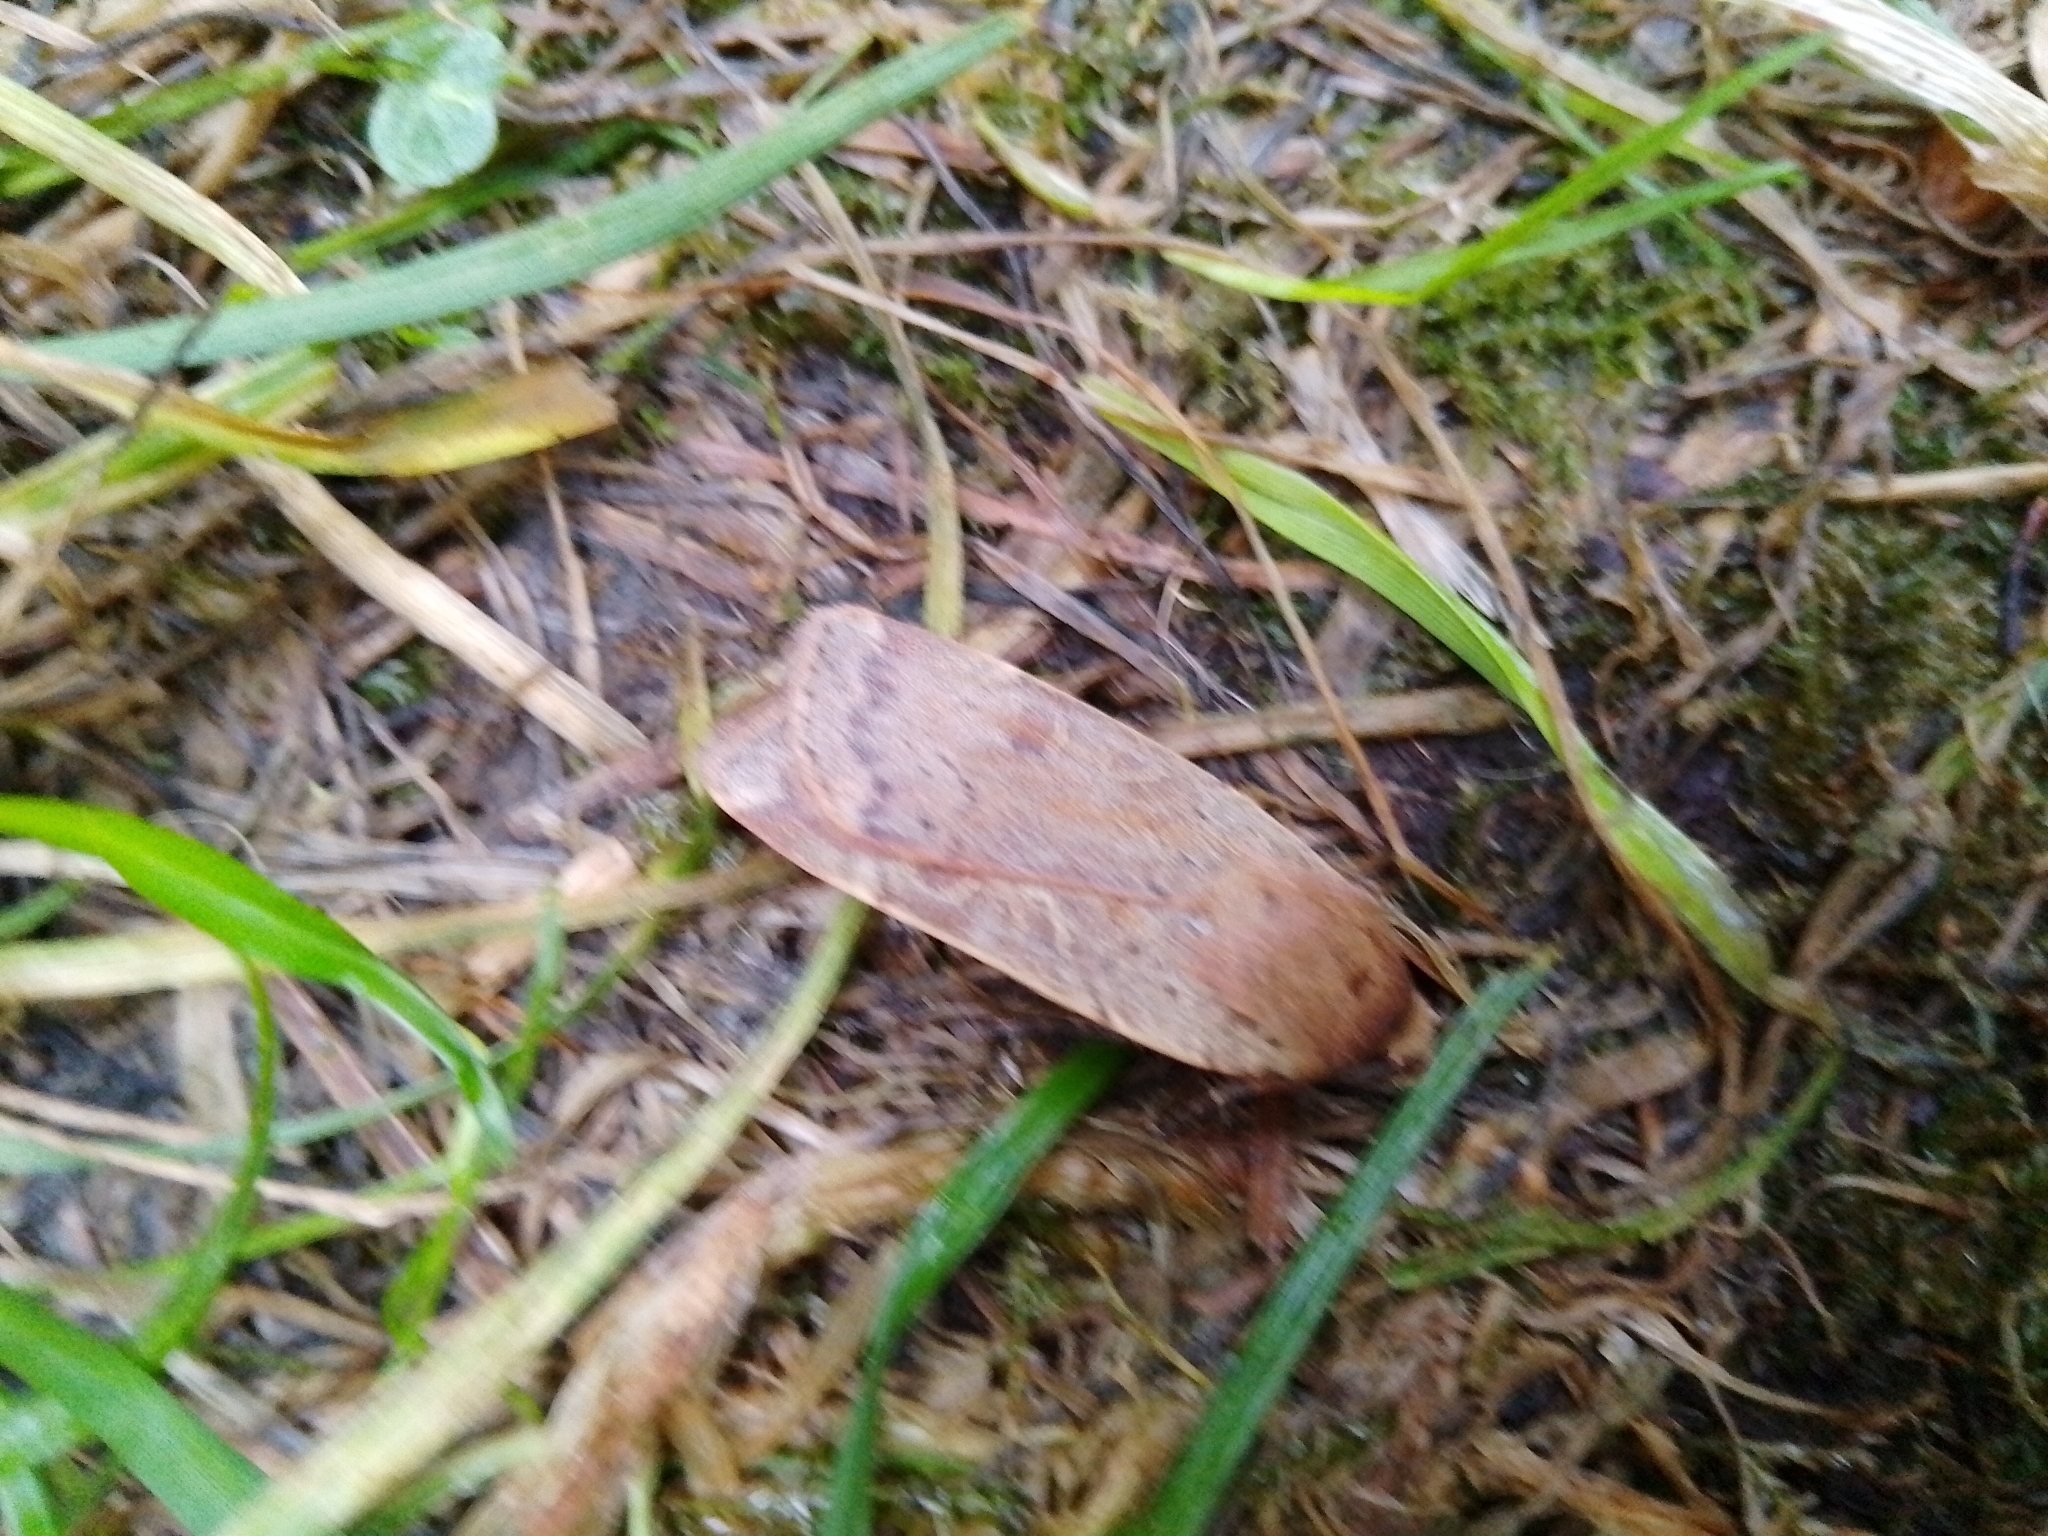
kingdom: Animalia
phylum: Arthropoda
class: Insecta
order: Lepidoptera
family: Noctuidae
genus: Noctua
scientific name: Noctua comes
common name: Lesser yellow underwing
